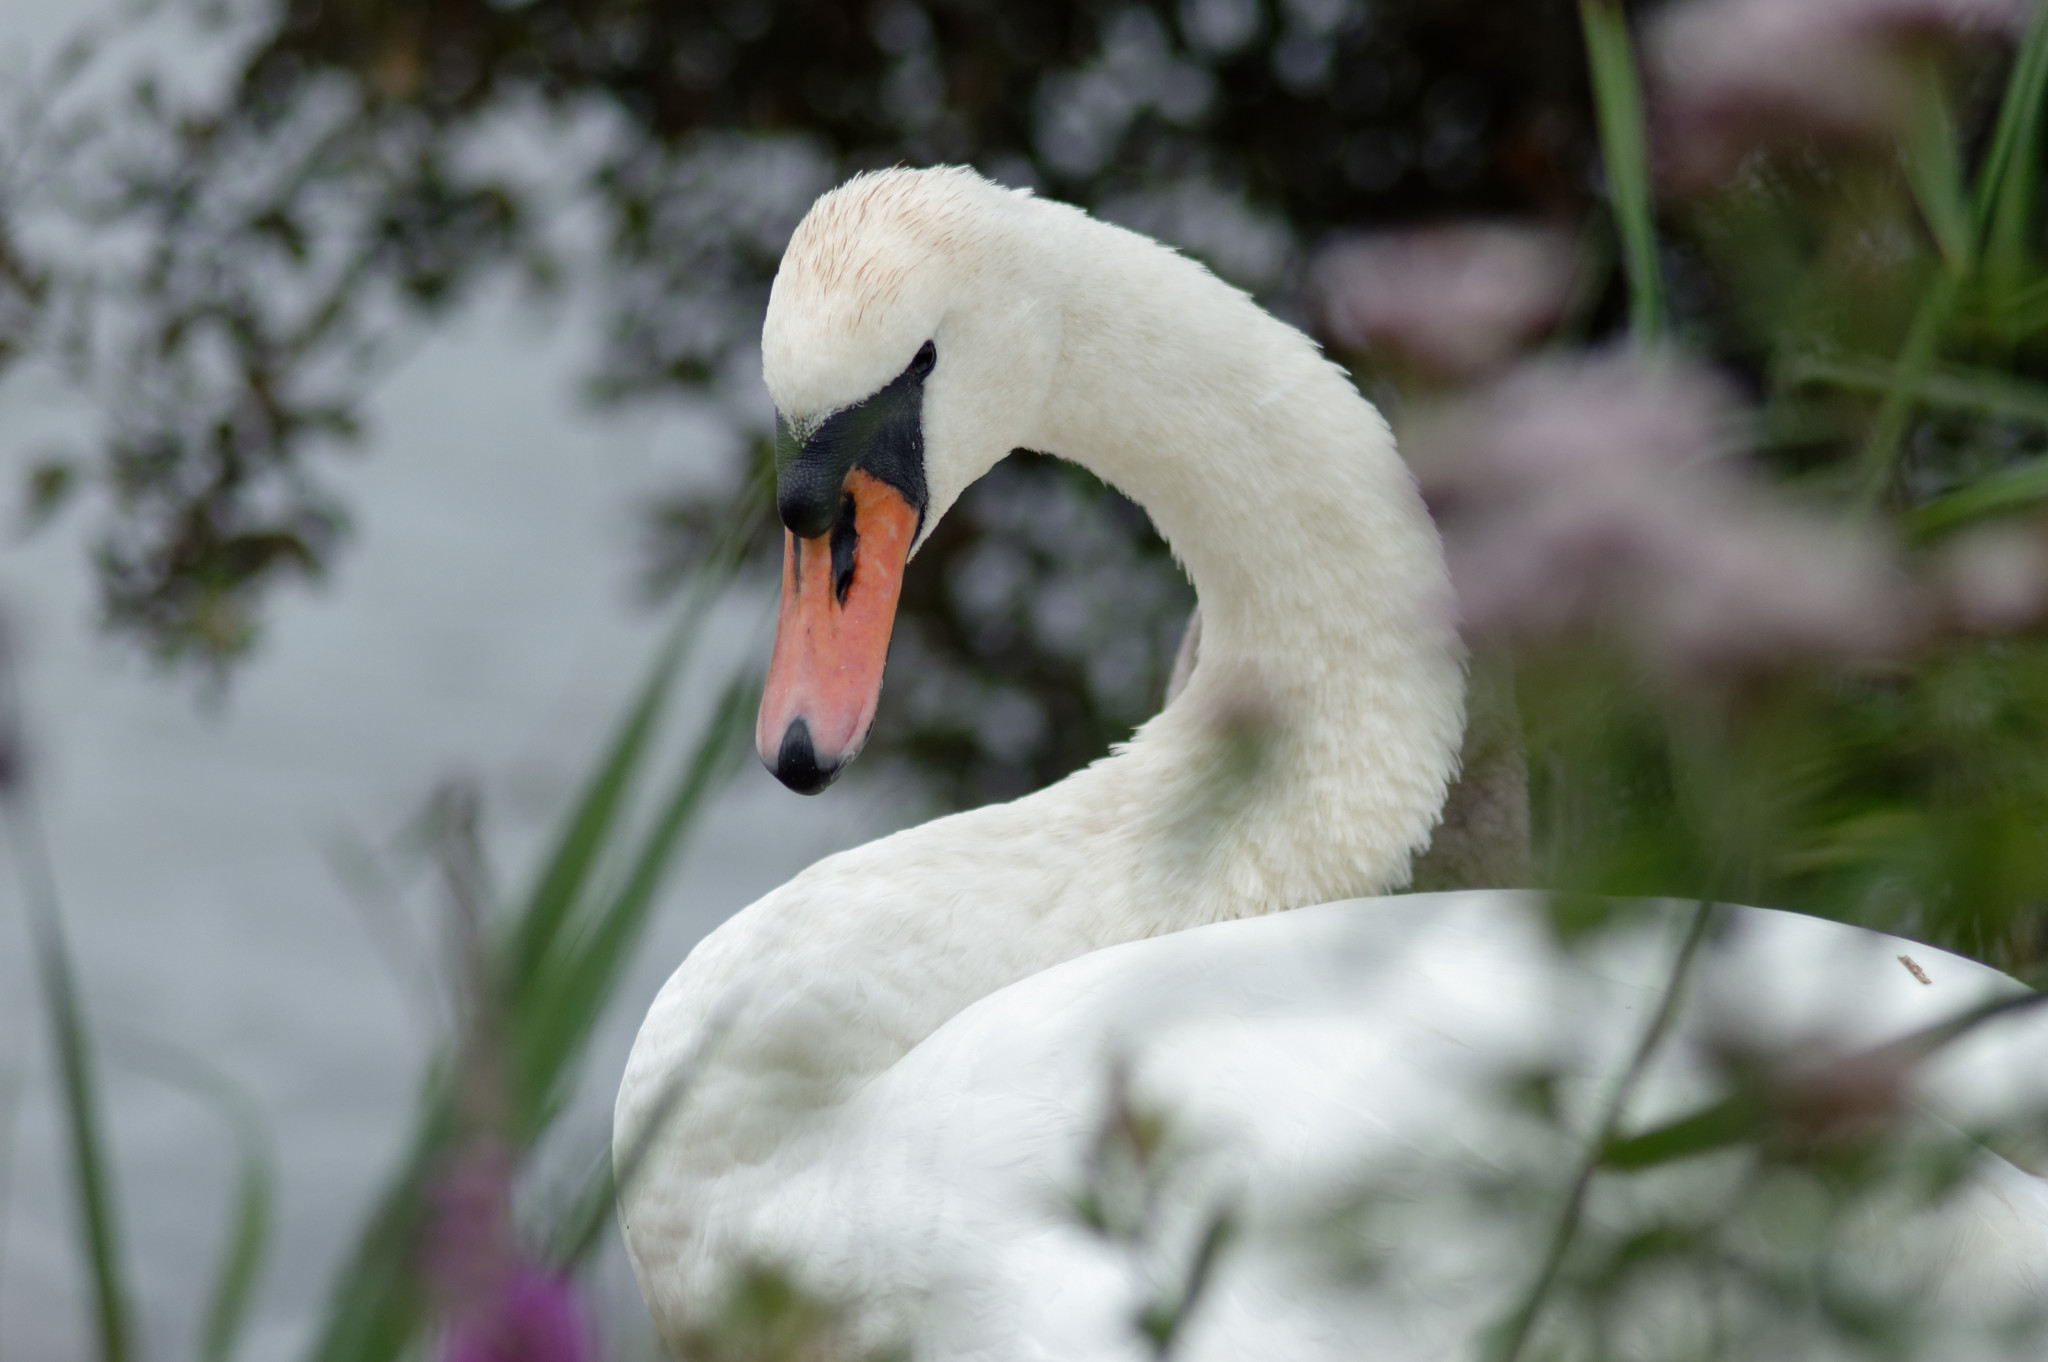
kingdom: Animalia
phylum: Chordata
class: Aves
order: Anseriformes
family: Anatidae
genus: Cygnus
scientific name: Cygnus olor
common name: Mute swan
